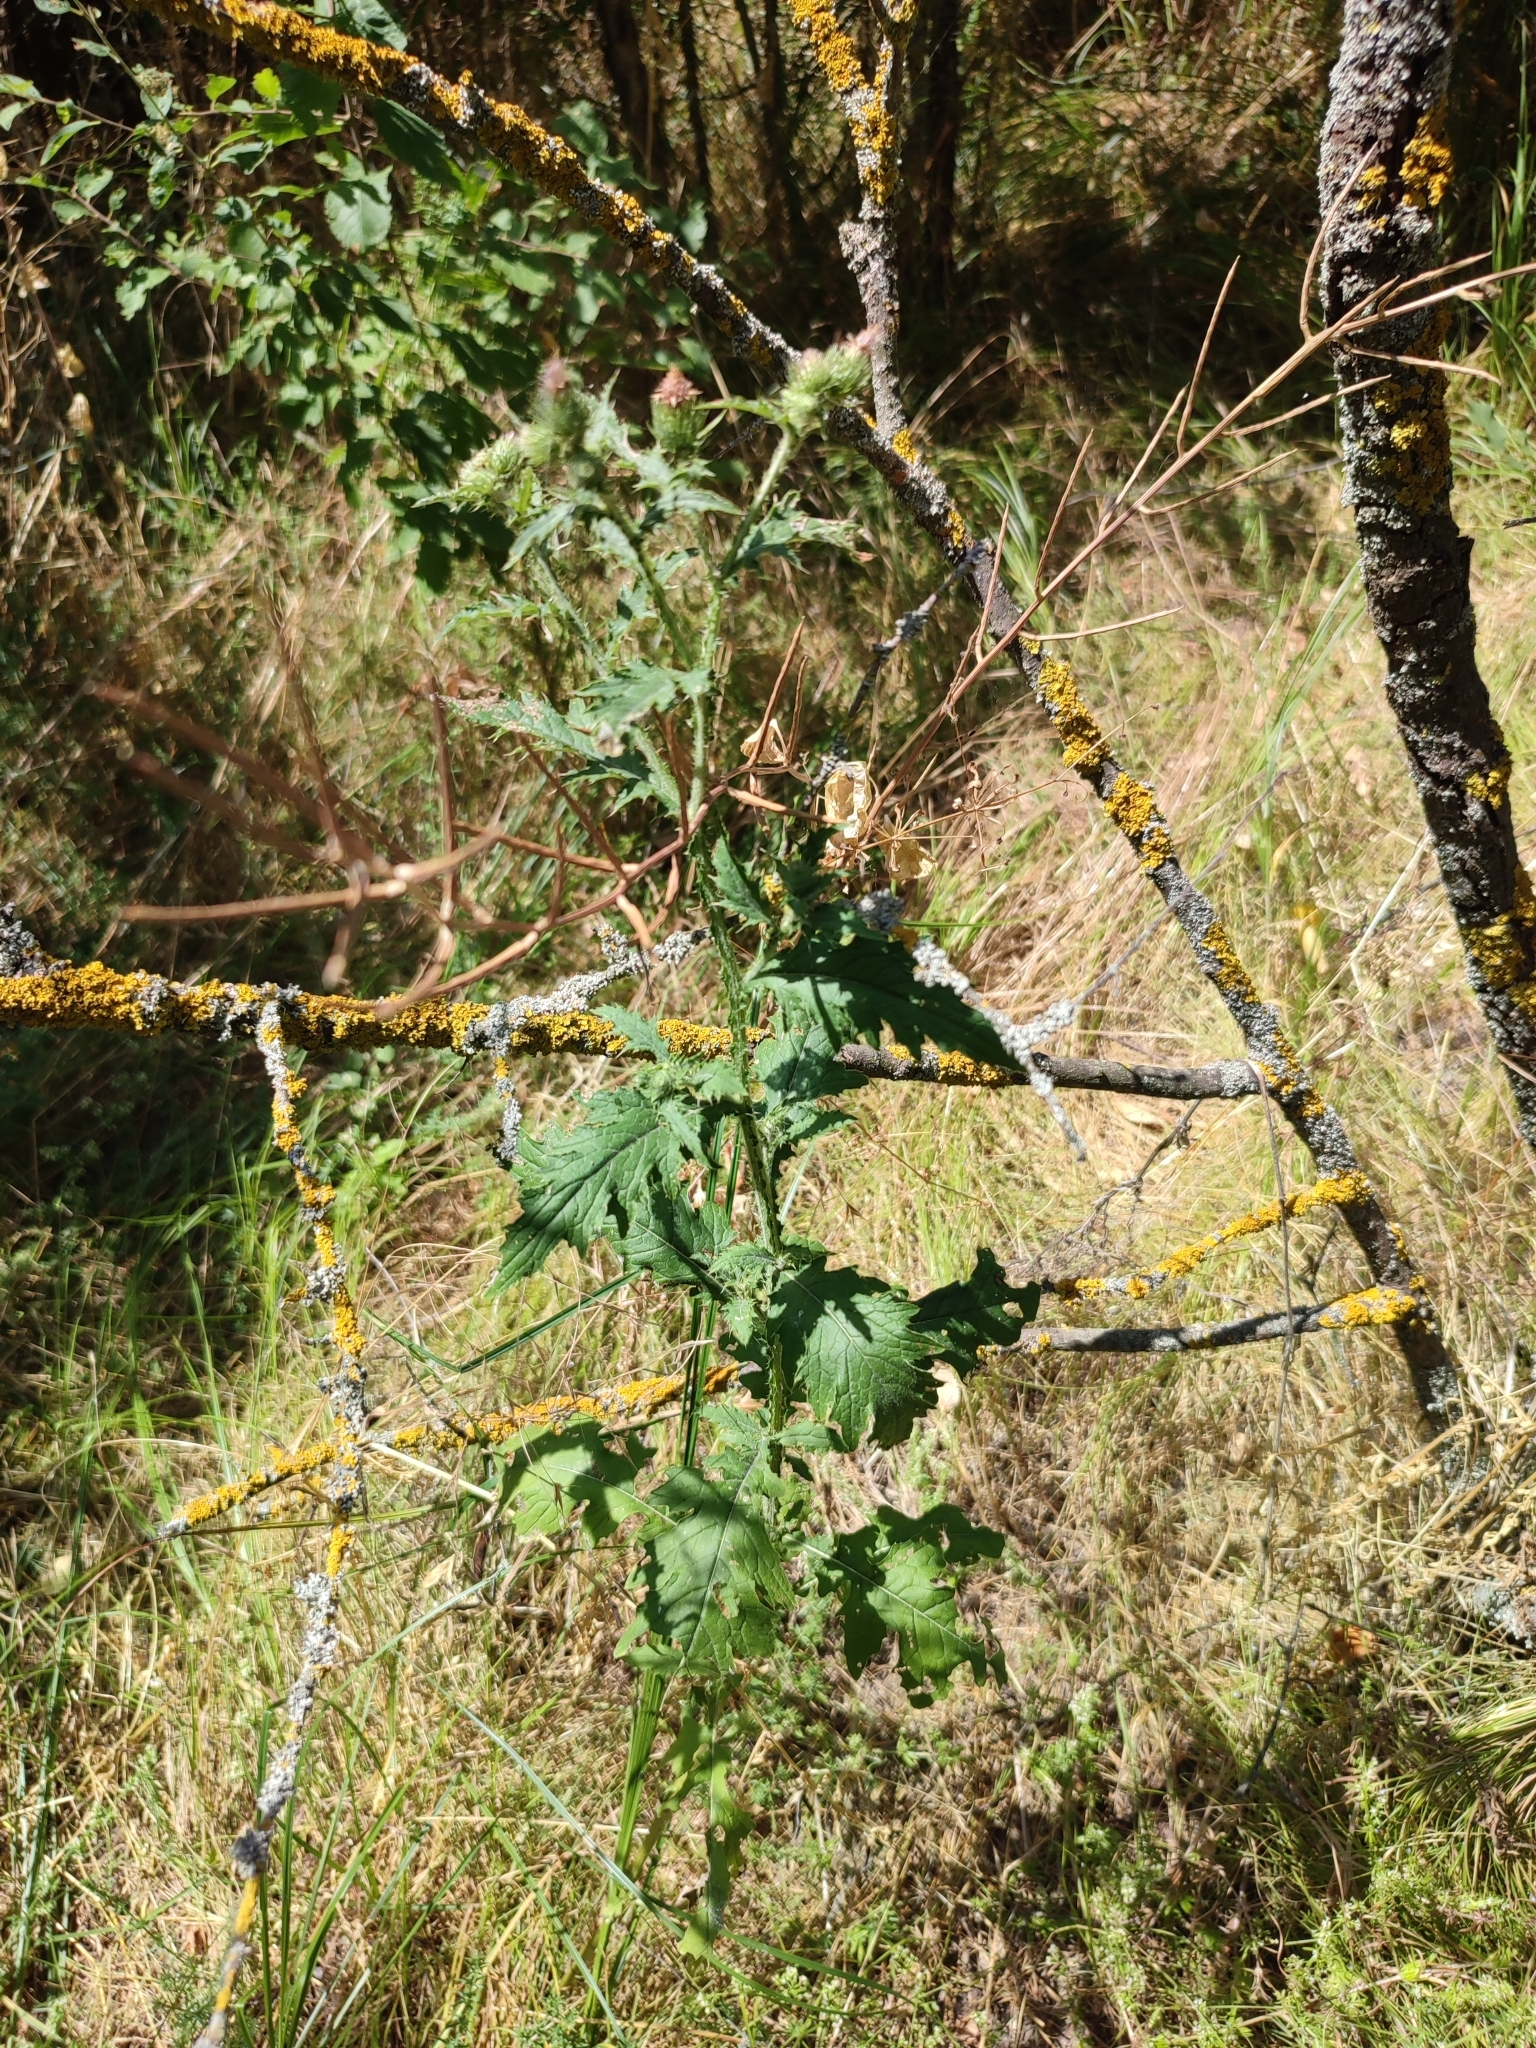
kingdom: Plantae
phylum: Tracheophyta
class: Magnoliopsida
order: Asterales
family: Asteraceae
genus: Carduus
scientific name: Carduus crispus
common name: Welted thistle
